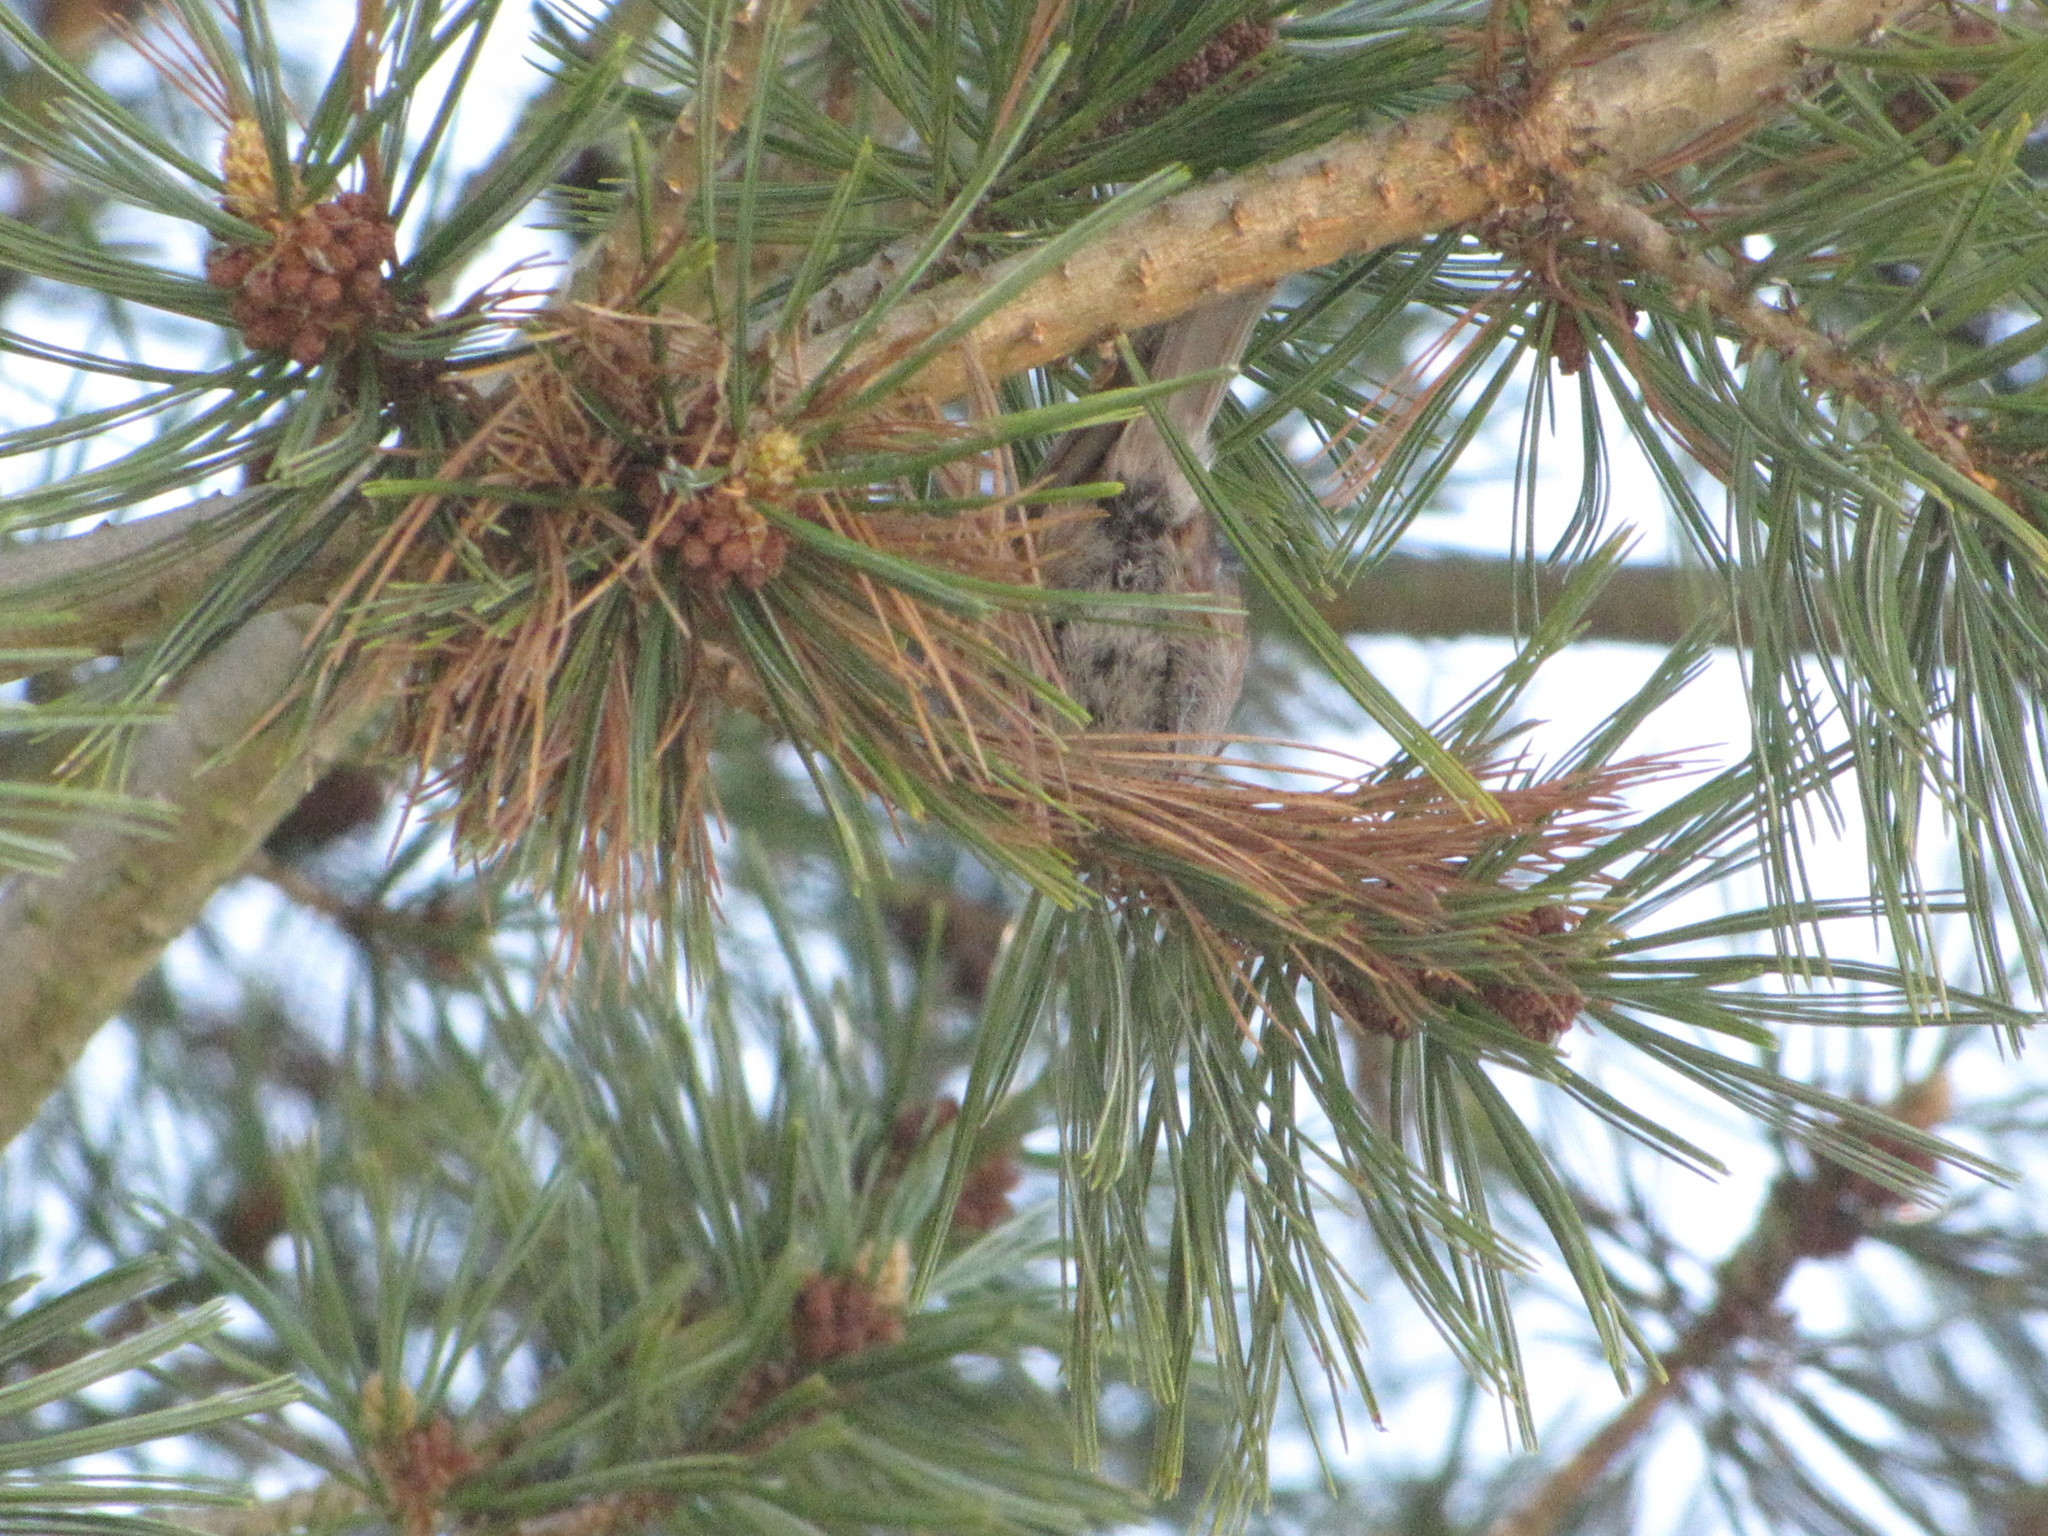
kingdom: Animalia
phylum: Chordata
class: Aves
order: Passeriformes
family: Paridae
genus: Poecile
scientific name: Poecile rufescens
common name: Chestnut-backed chickadee
